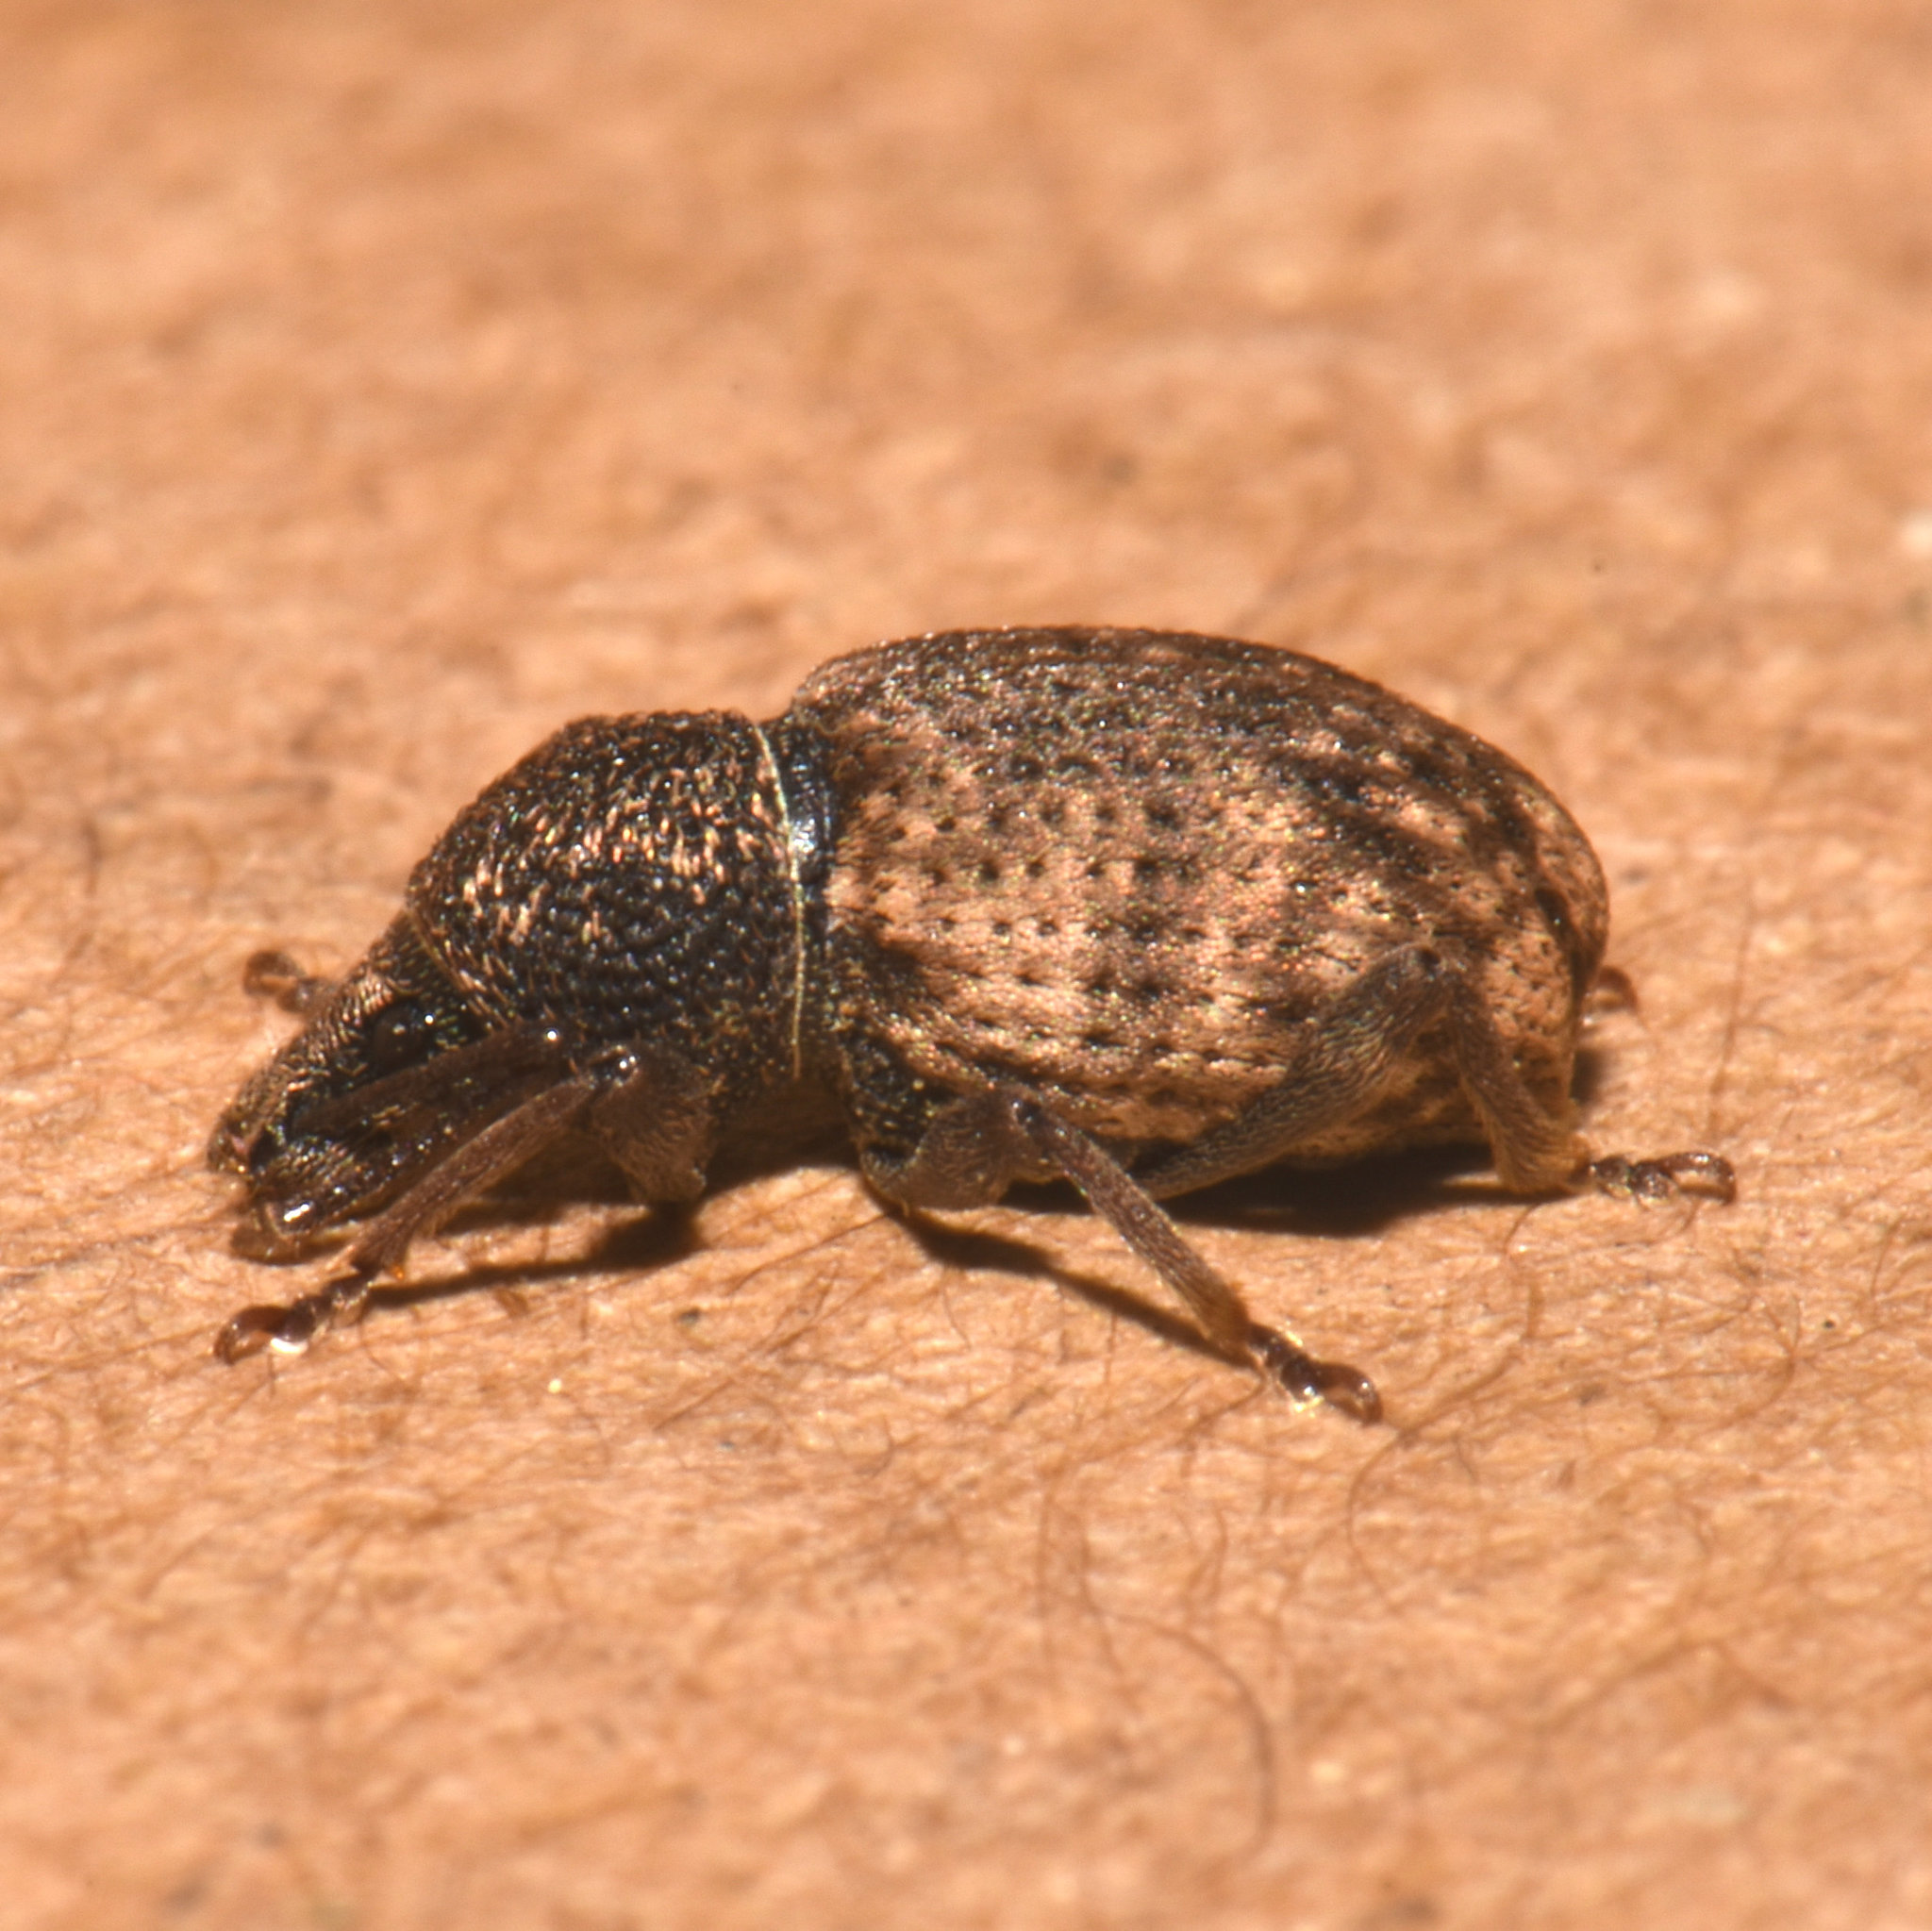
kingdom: Animalia
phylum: Arthropoda
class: Insecta
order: Coleoptera
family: Curculionidae
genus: Otiorhynchus
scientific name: Otiorhynchus raucus
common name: Weevil
